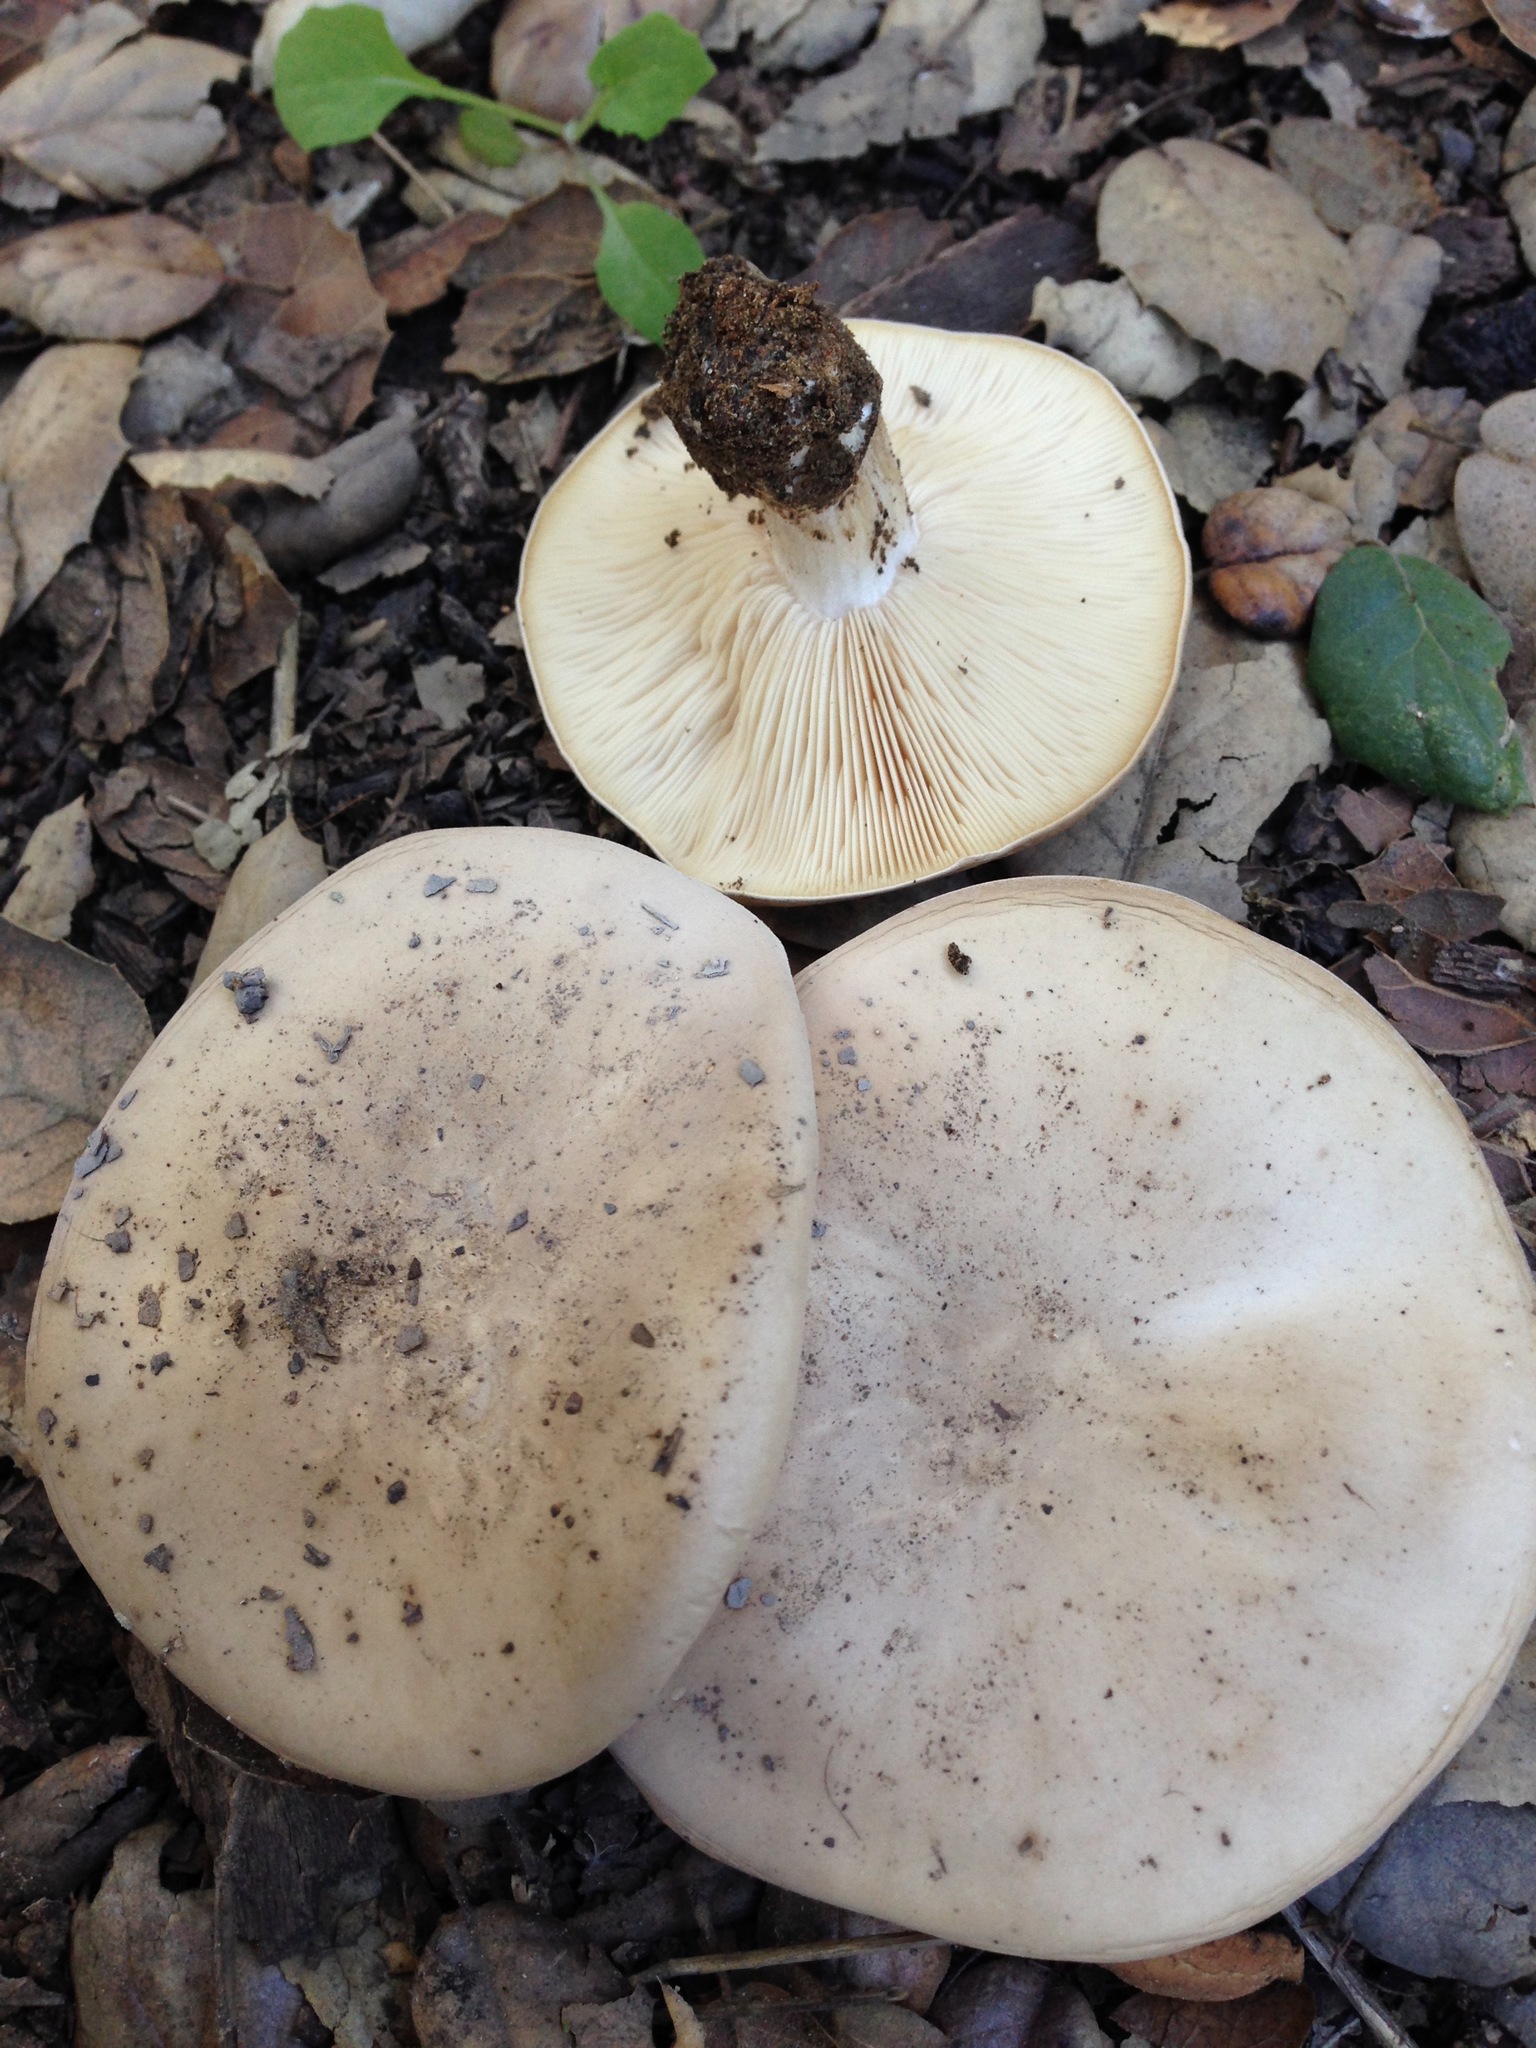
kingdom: Fungi
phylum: Basidiomycota
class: Agaricomycetes
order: Agaricales
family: Tricholomataceae
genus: Collybia
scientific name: Collybia
